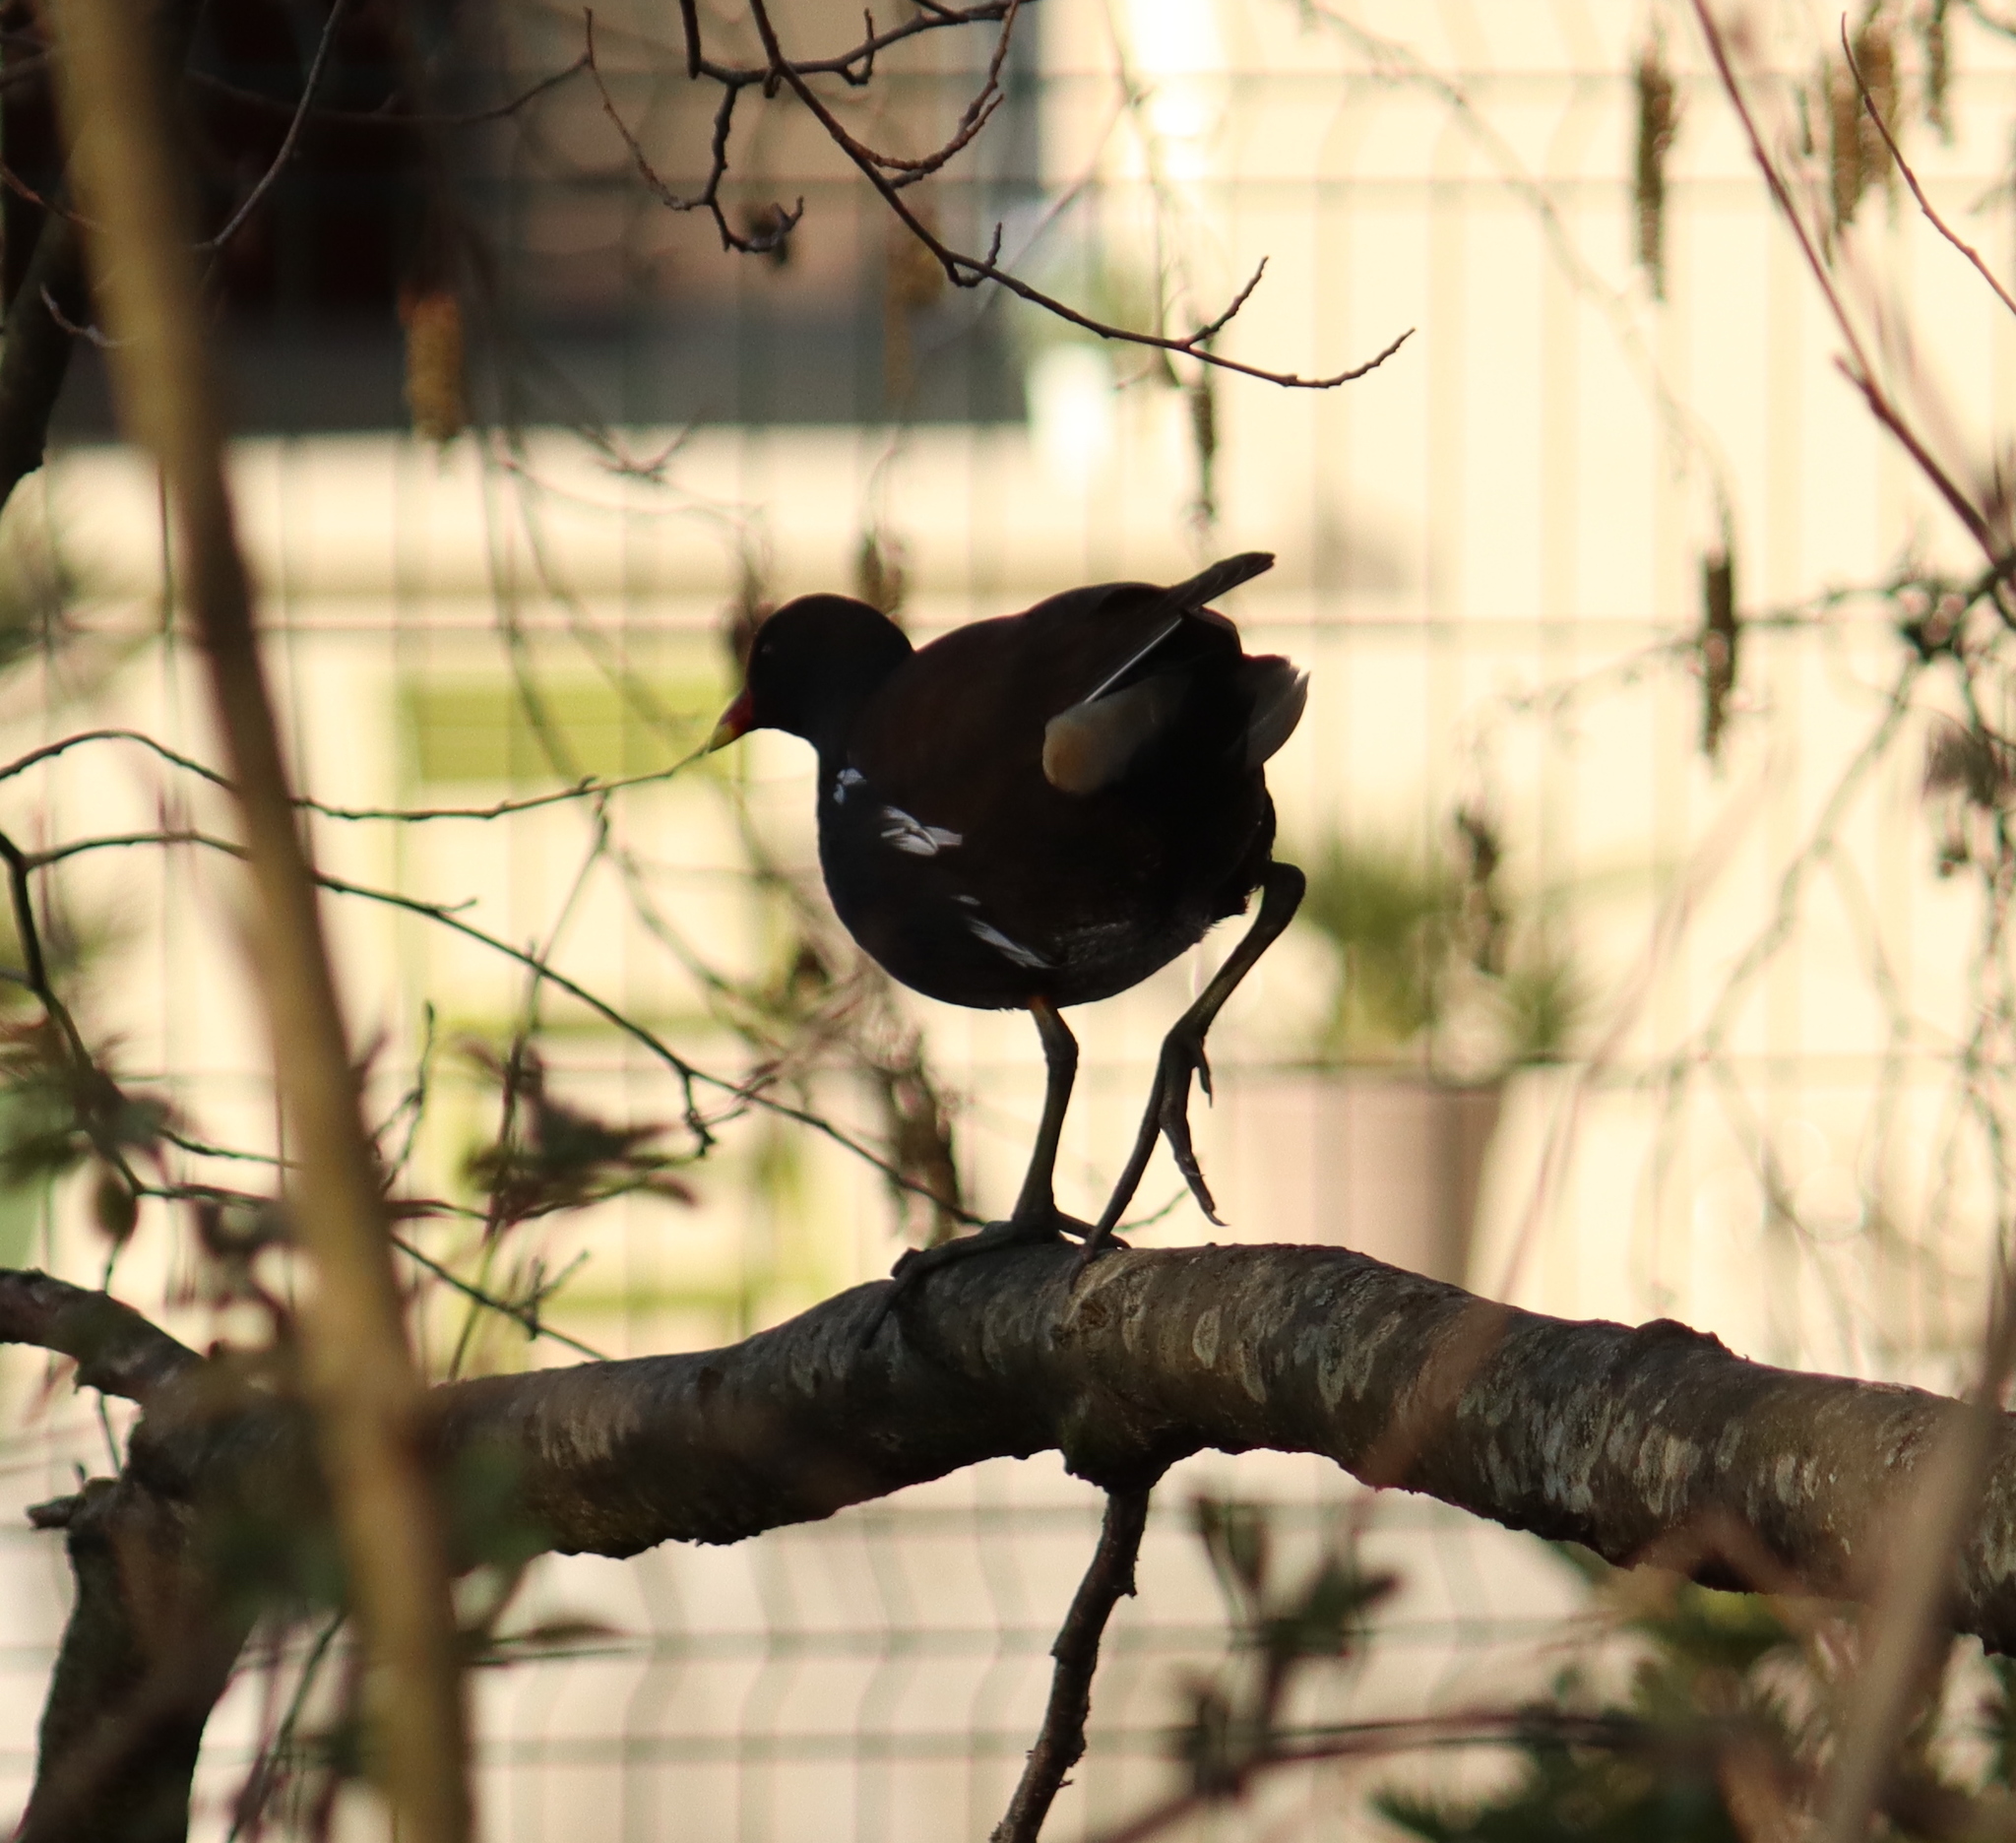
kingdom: Animalia
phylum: Chordata
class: Aves
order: Gruiformes
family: Rallidae
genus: Gallinula
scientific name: Gallinula chloropus
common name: Common moorhen
